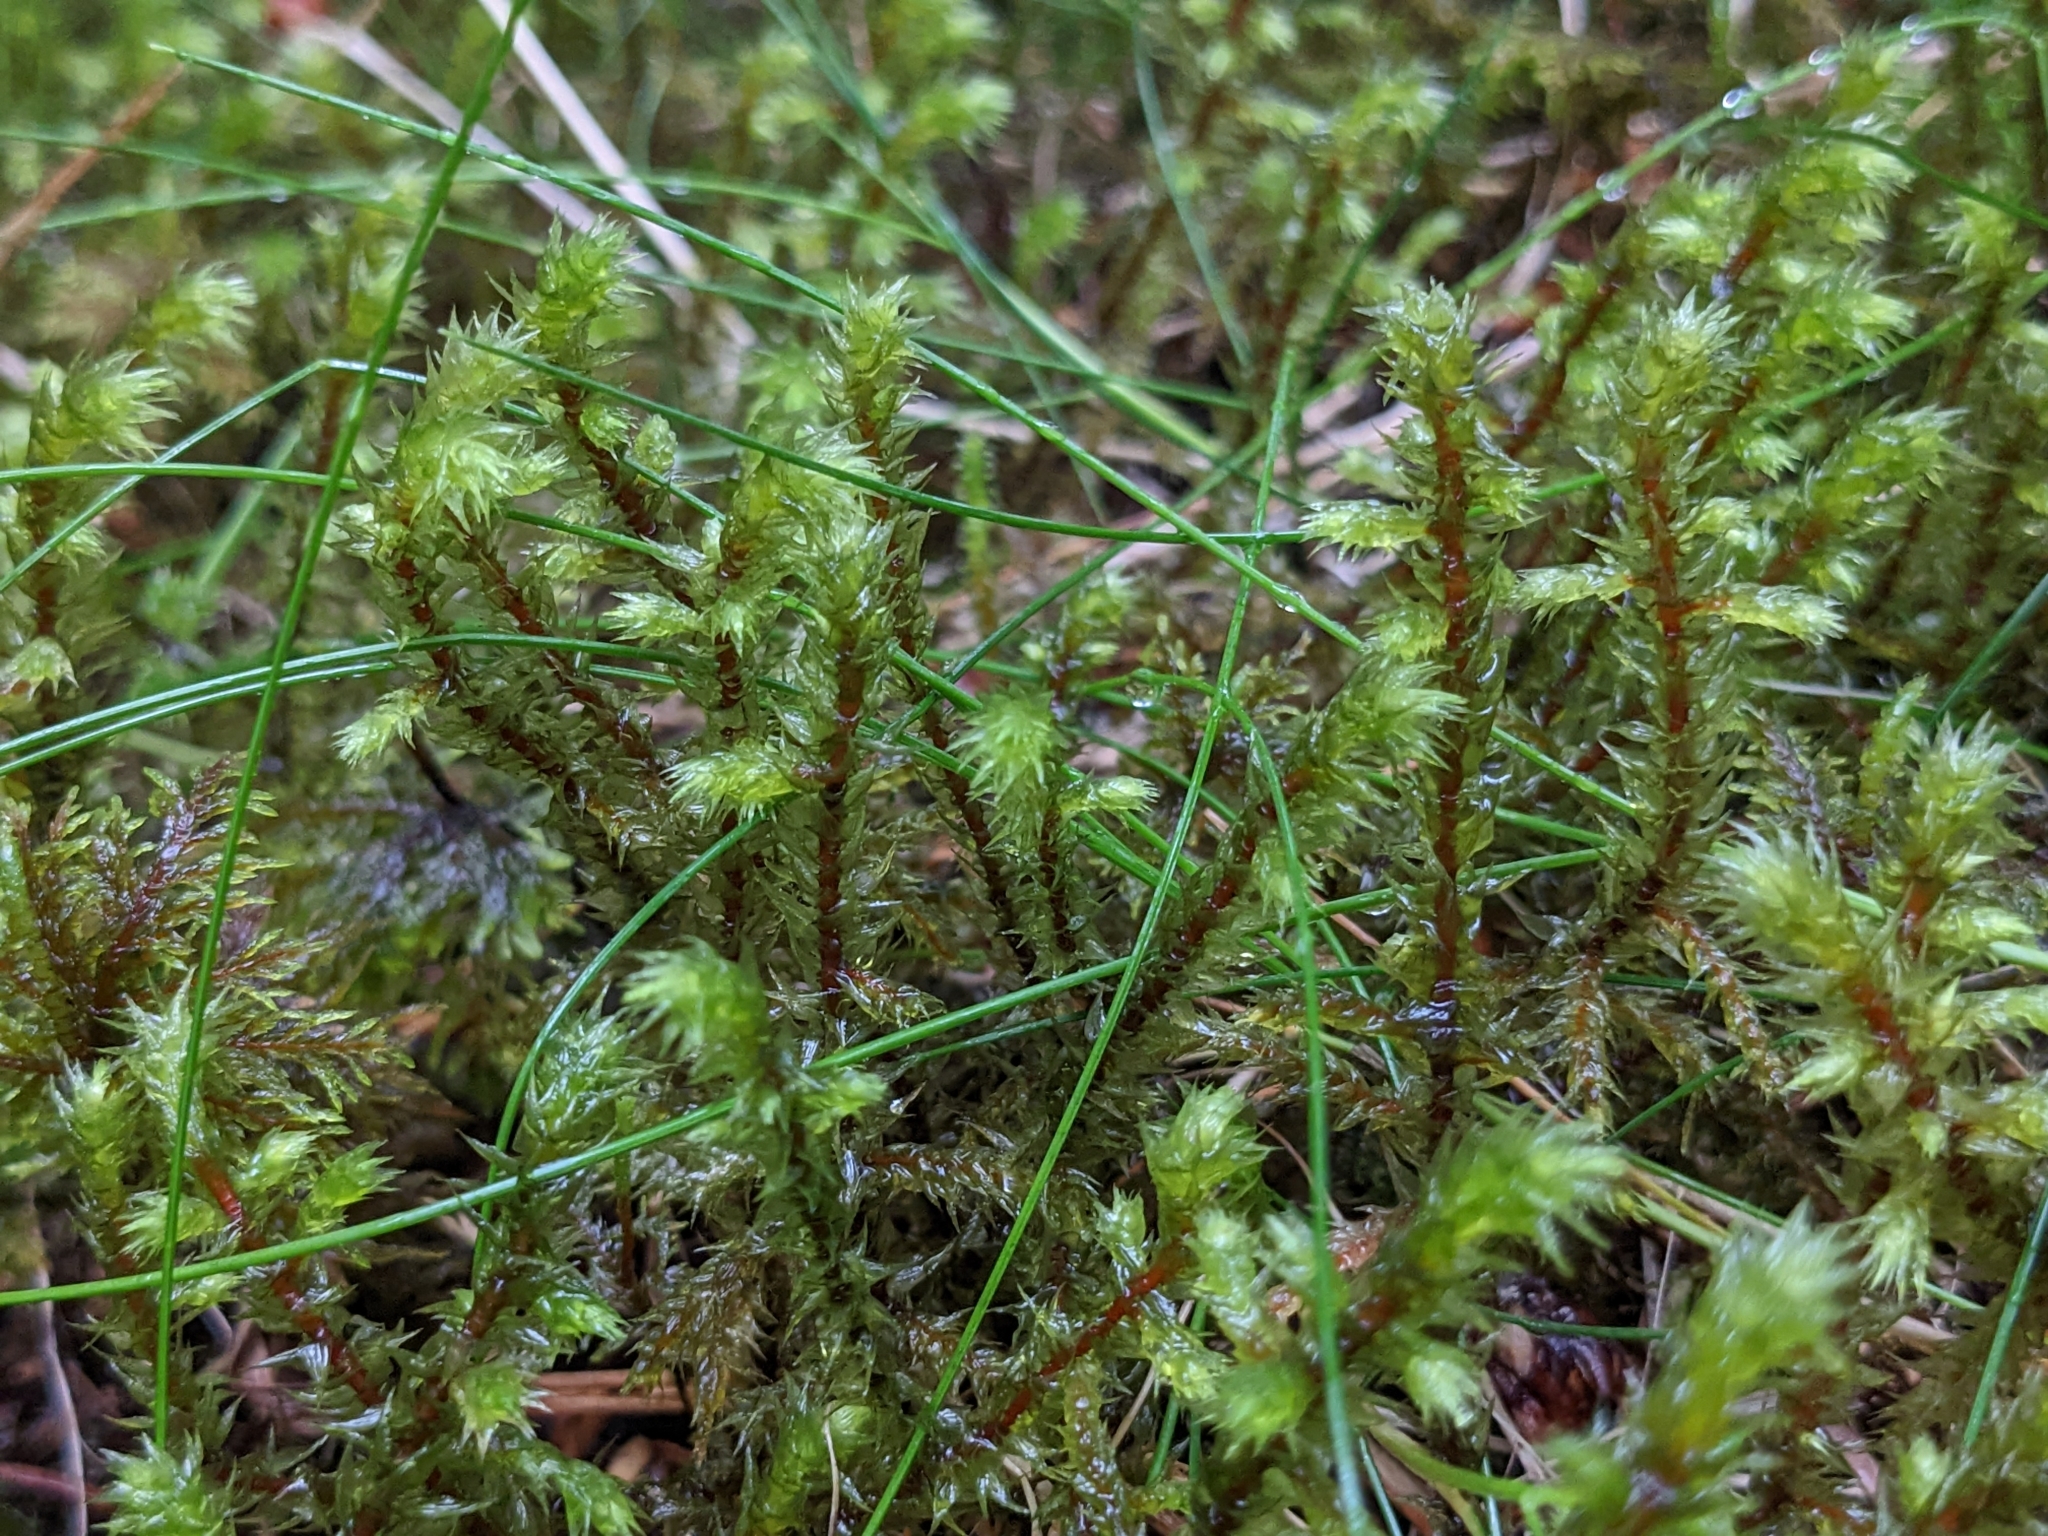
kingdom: Plantae
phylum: Bryophyta
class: Bryopsida
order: Hypnales
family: Hylocomiaceae
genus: Hylocomiadelphus
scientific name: Hylocomiadelphus triquetrus
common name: Rough goose neck moss
